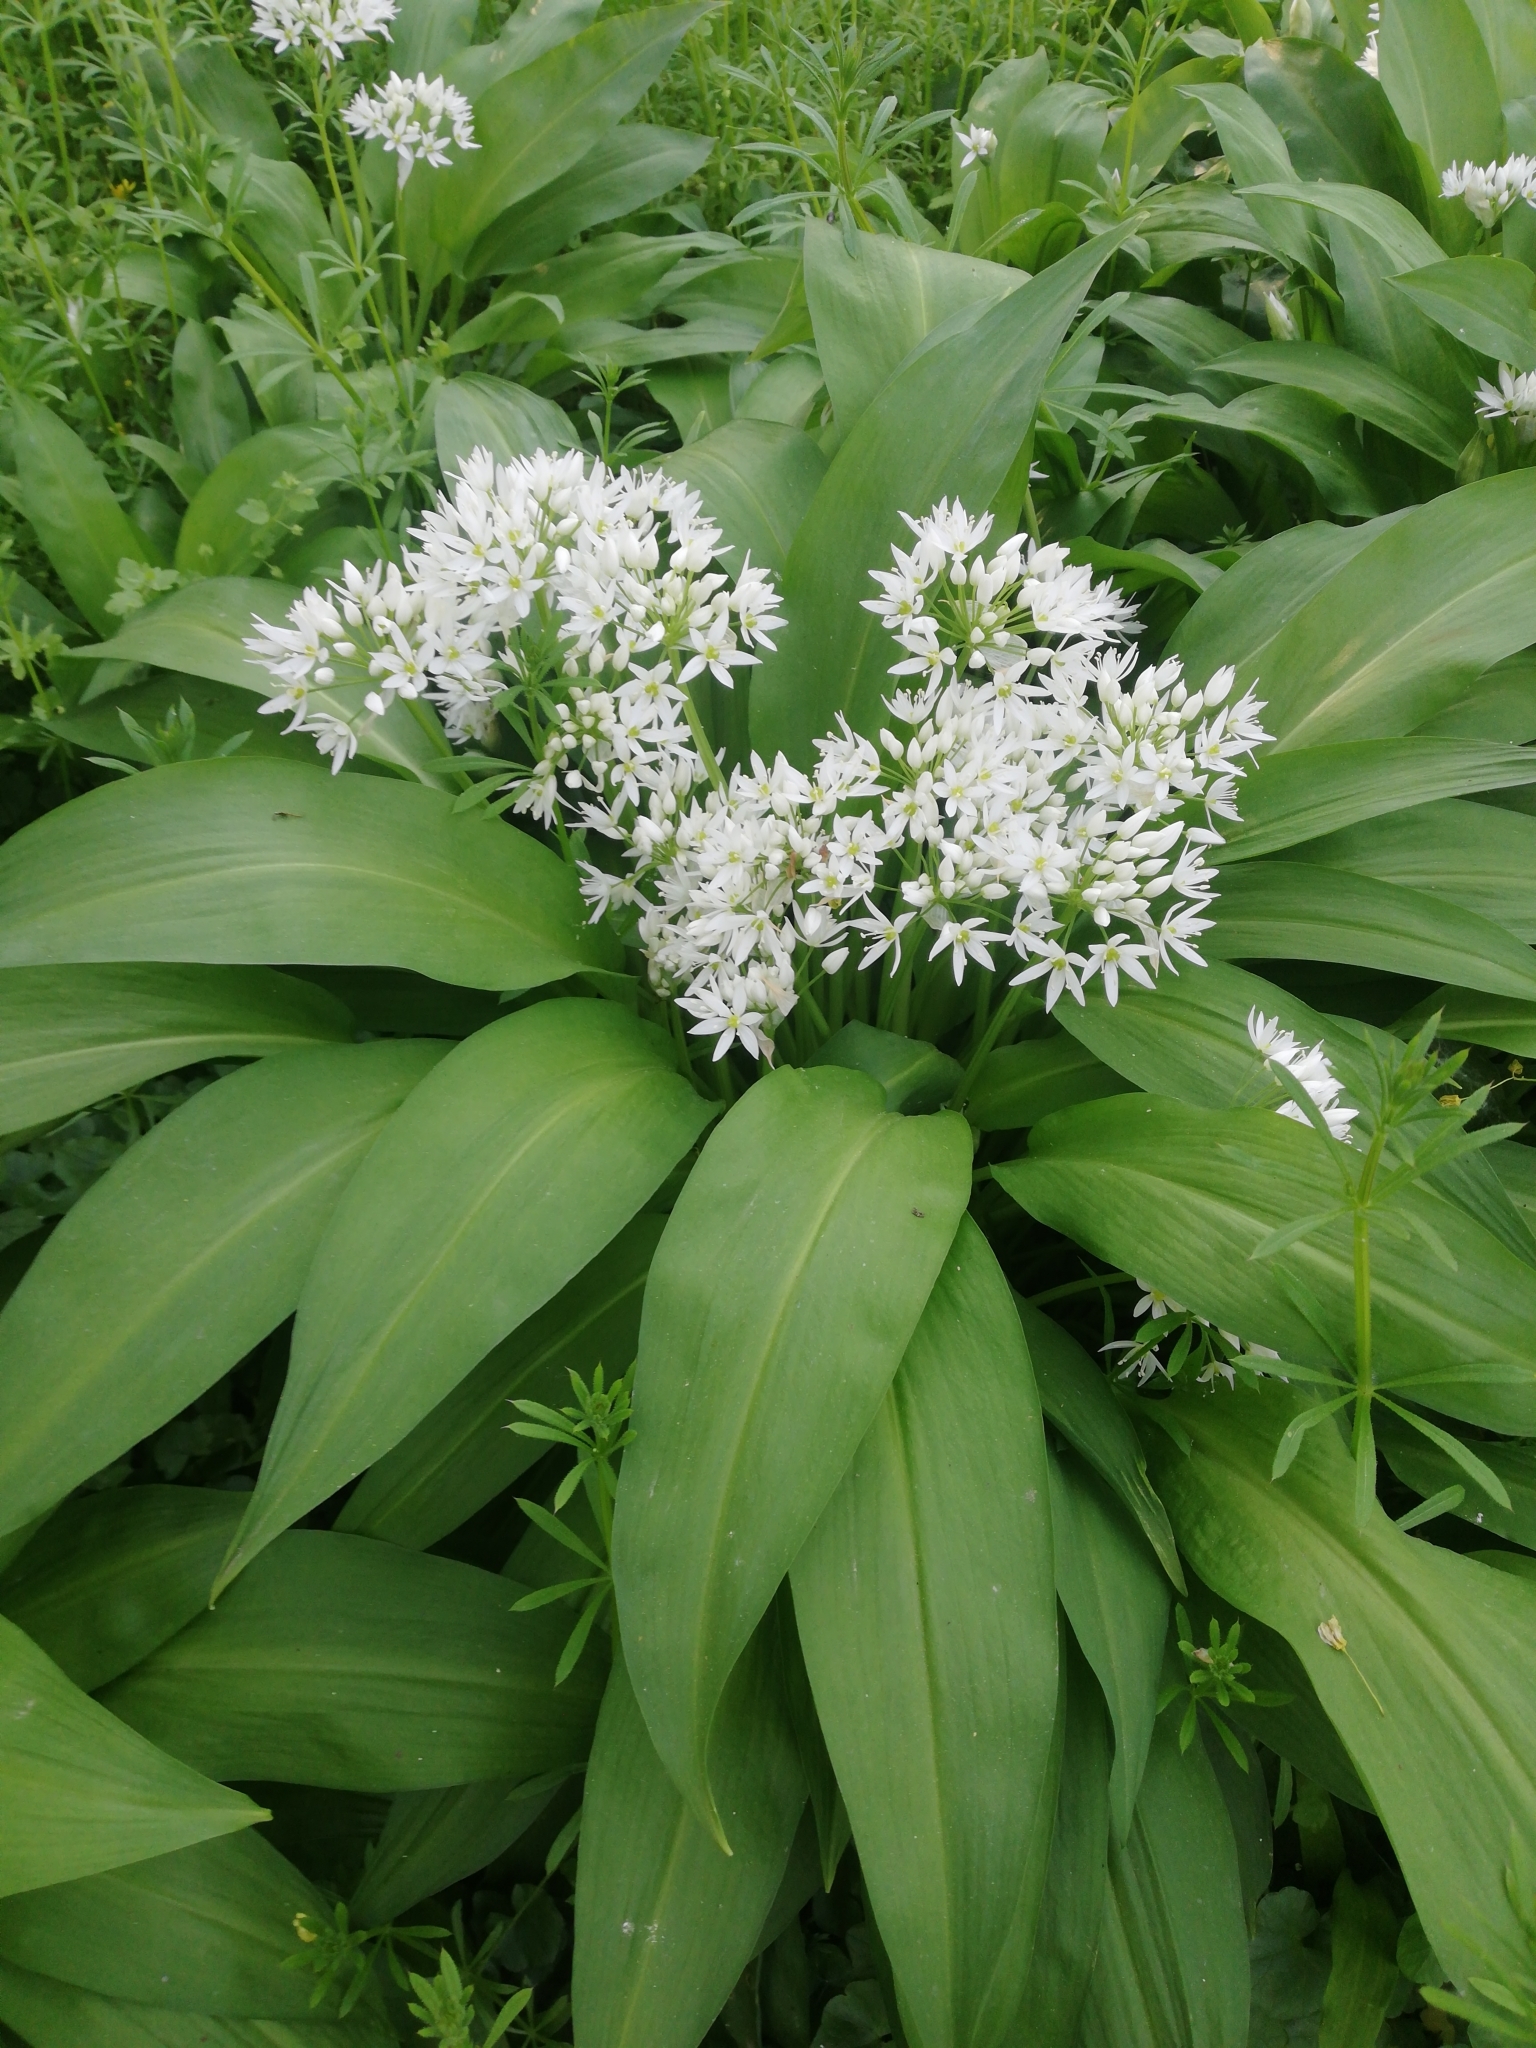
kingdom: Plantae
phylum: Tracheophyta
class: Liliopsida
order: Asparagales
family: Amaryllidaceae
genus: Allium
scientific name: Allium ursinum
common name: Ramsons
